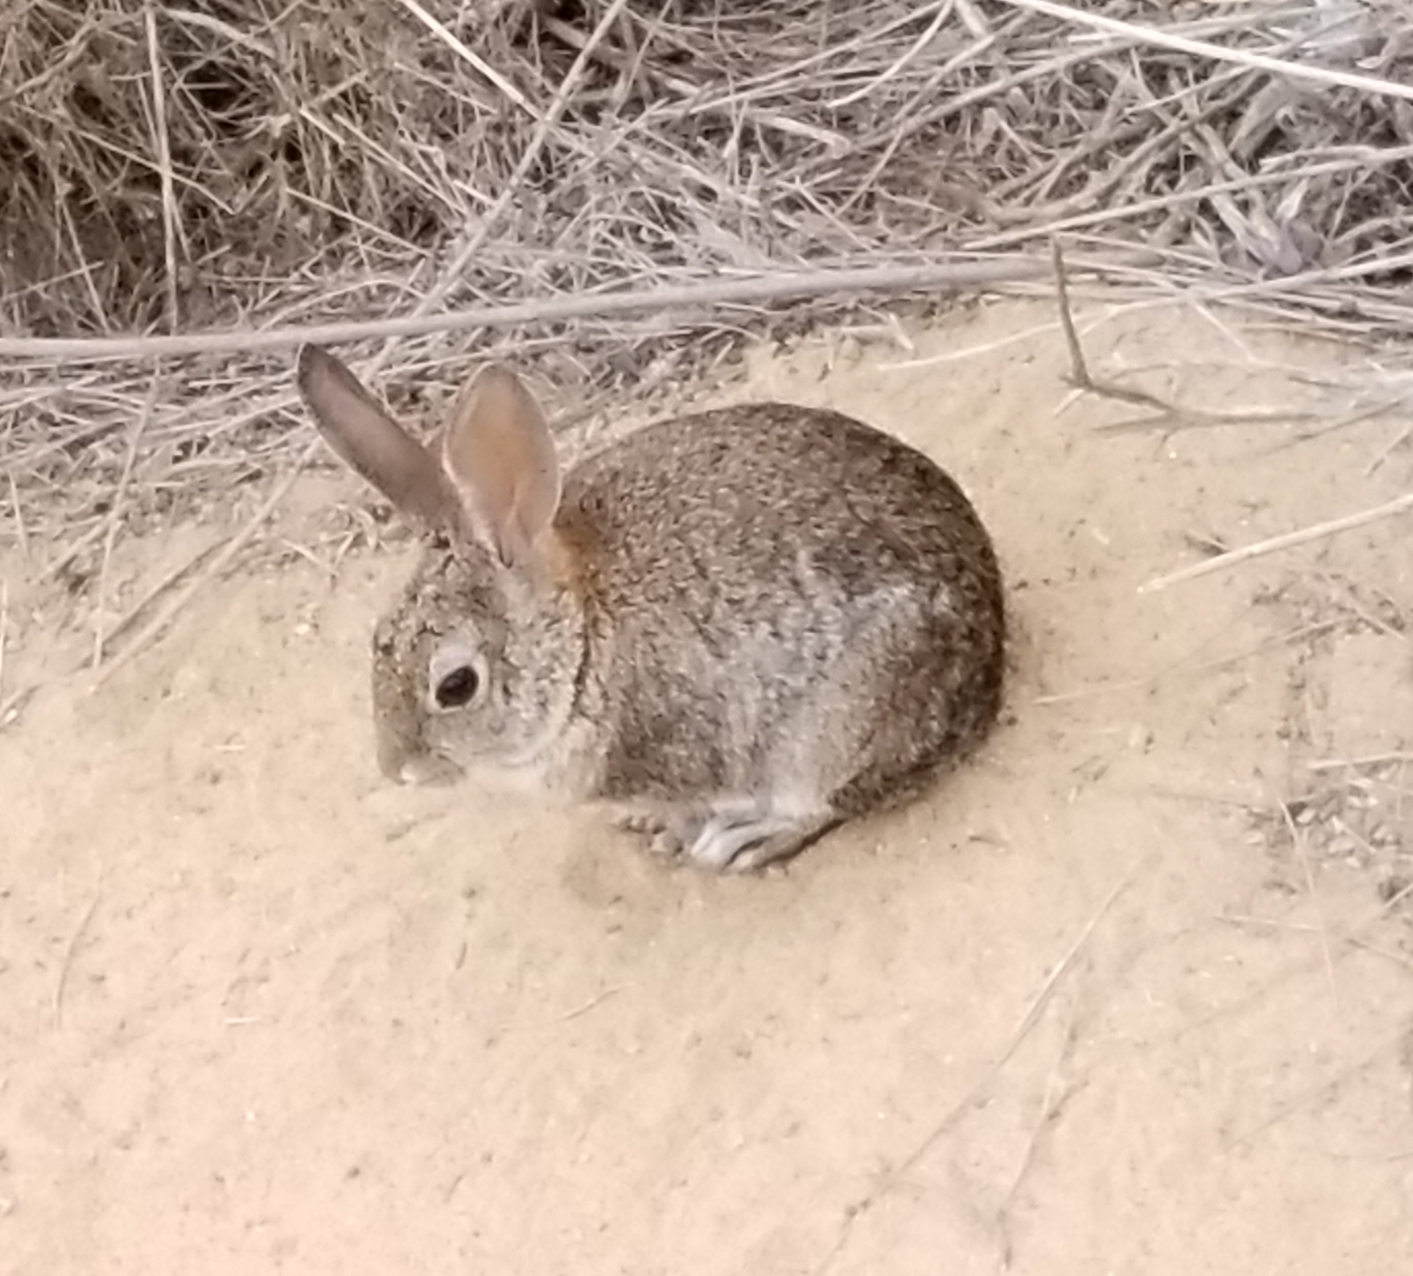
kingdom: Animalia
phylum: Chordata
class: Mammalia
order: Lagomorpha
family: Leporidae
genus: Sylvilagus
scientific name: Sylvilagus audubonii
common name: Desert cottontail
